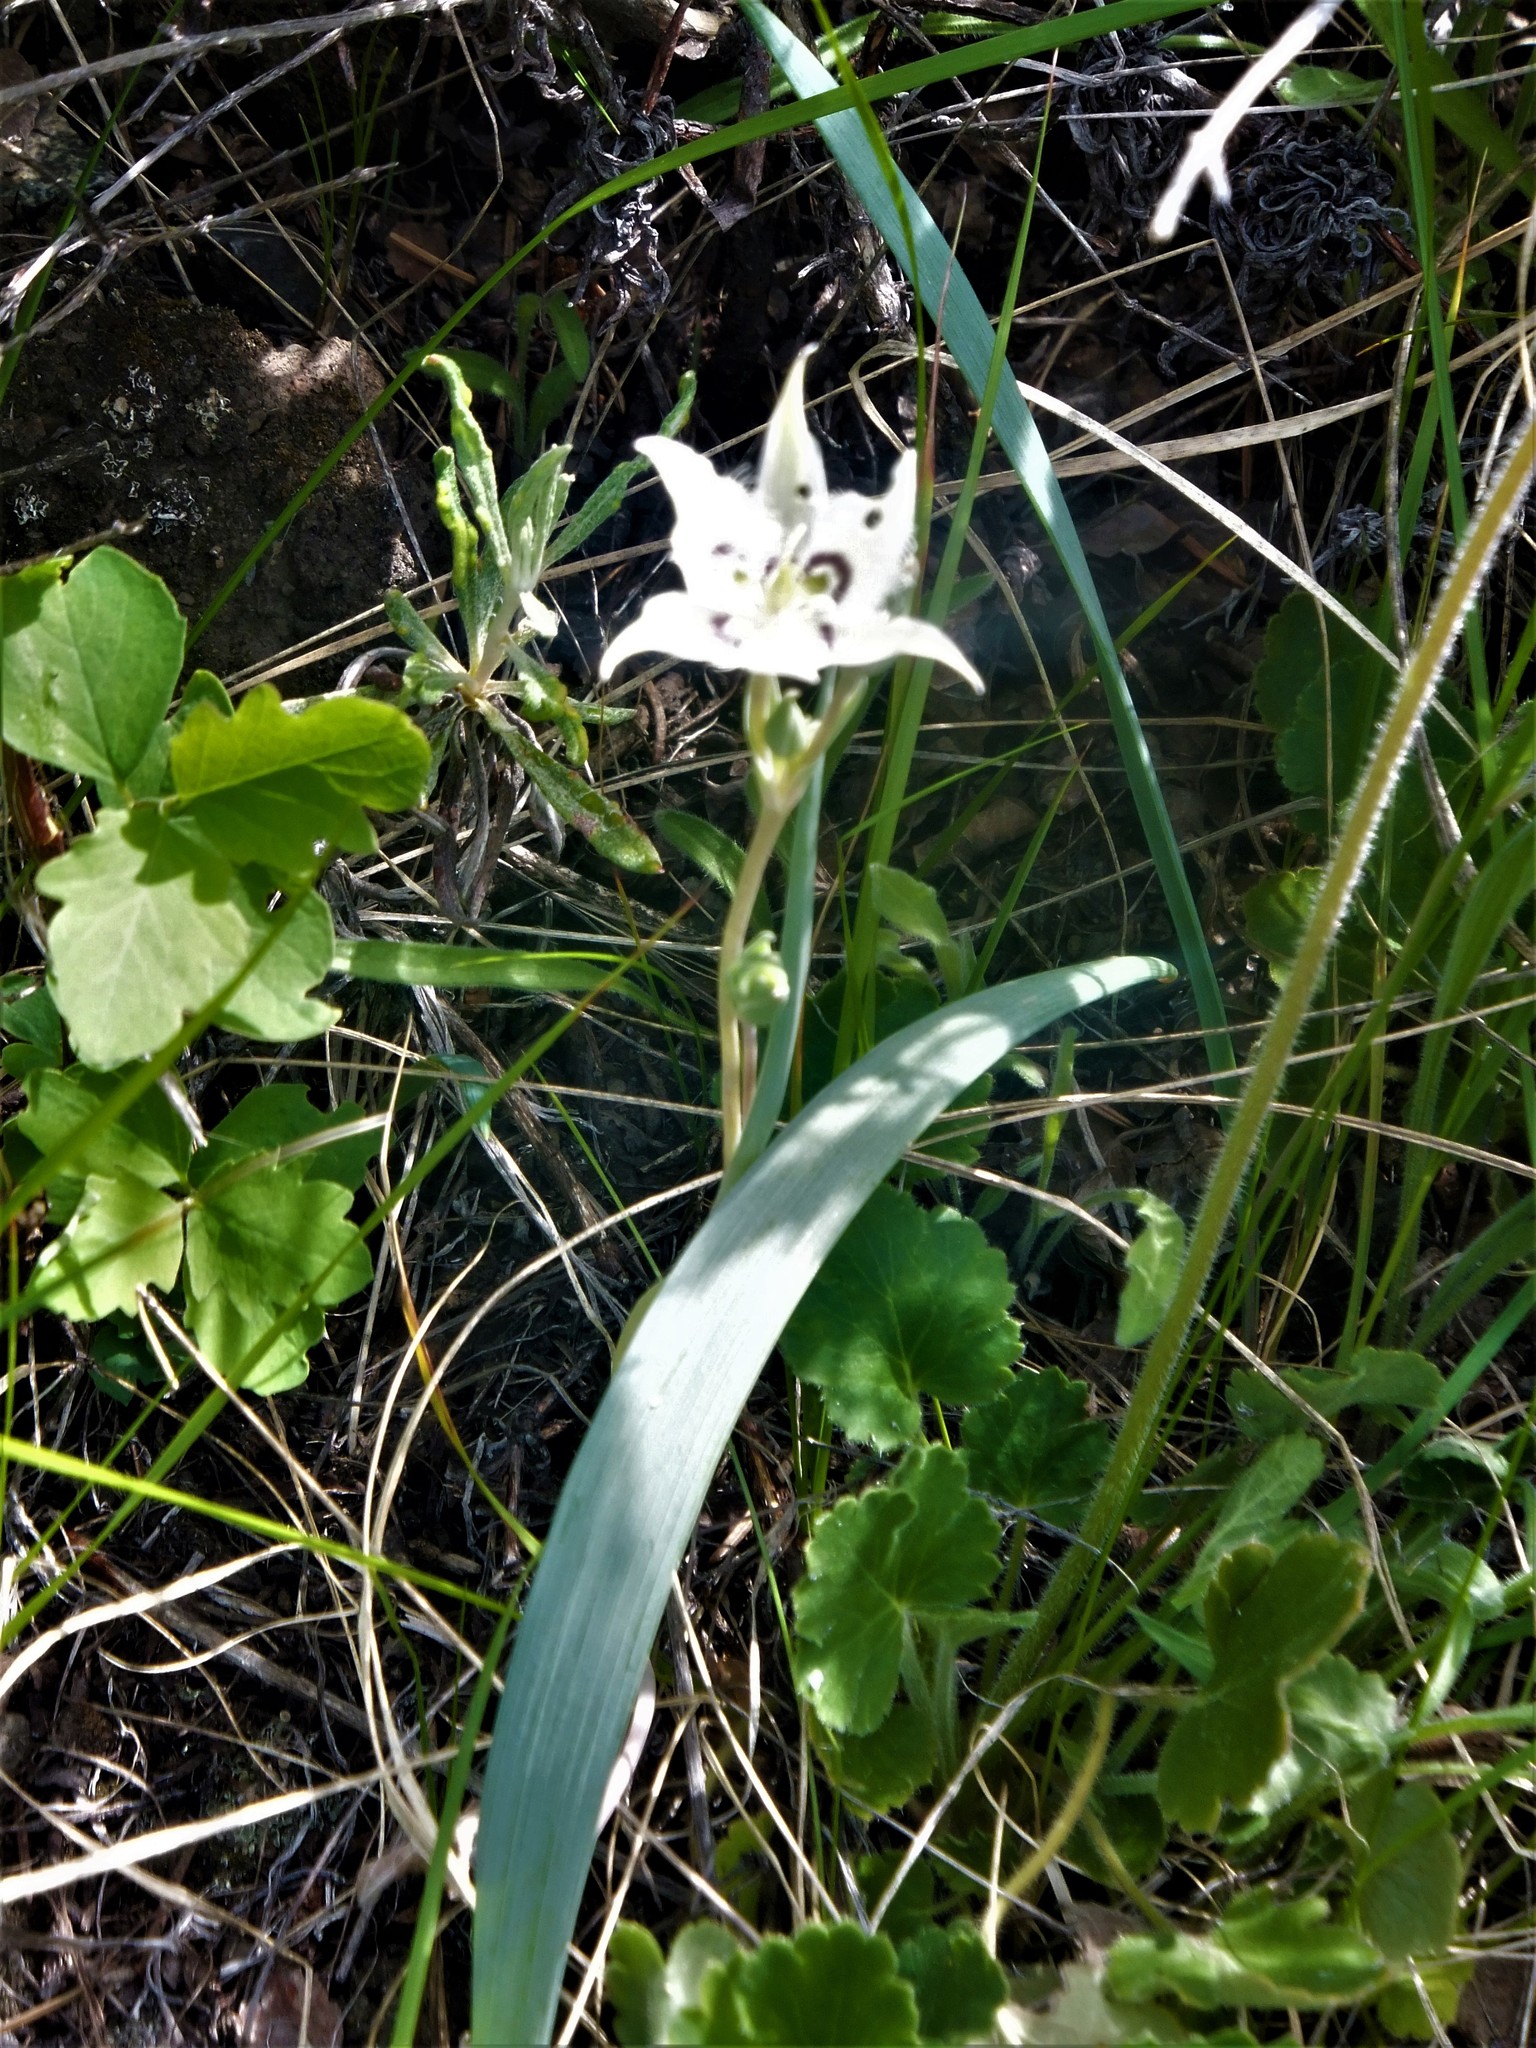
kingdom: Plantae
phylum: Tracheophyta
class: Liliopsida
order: Liliales
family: Liliaceae
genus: Calochortus
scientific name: Calochortus lyallii
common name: Lyall's mariposa lily
